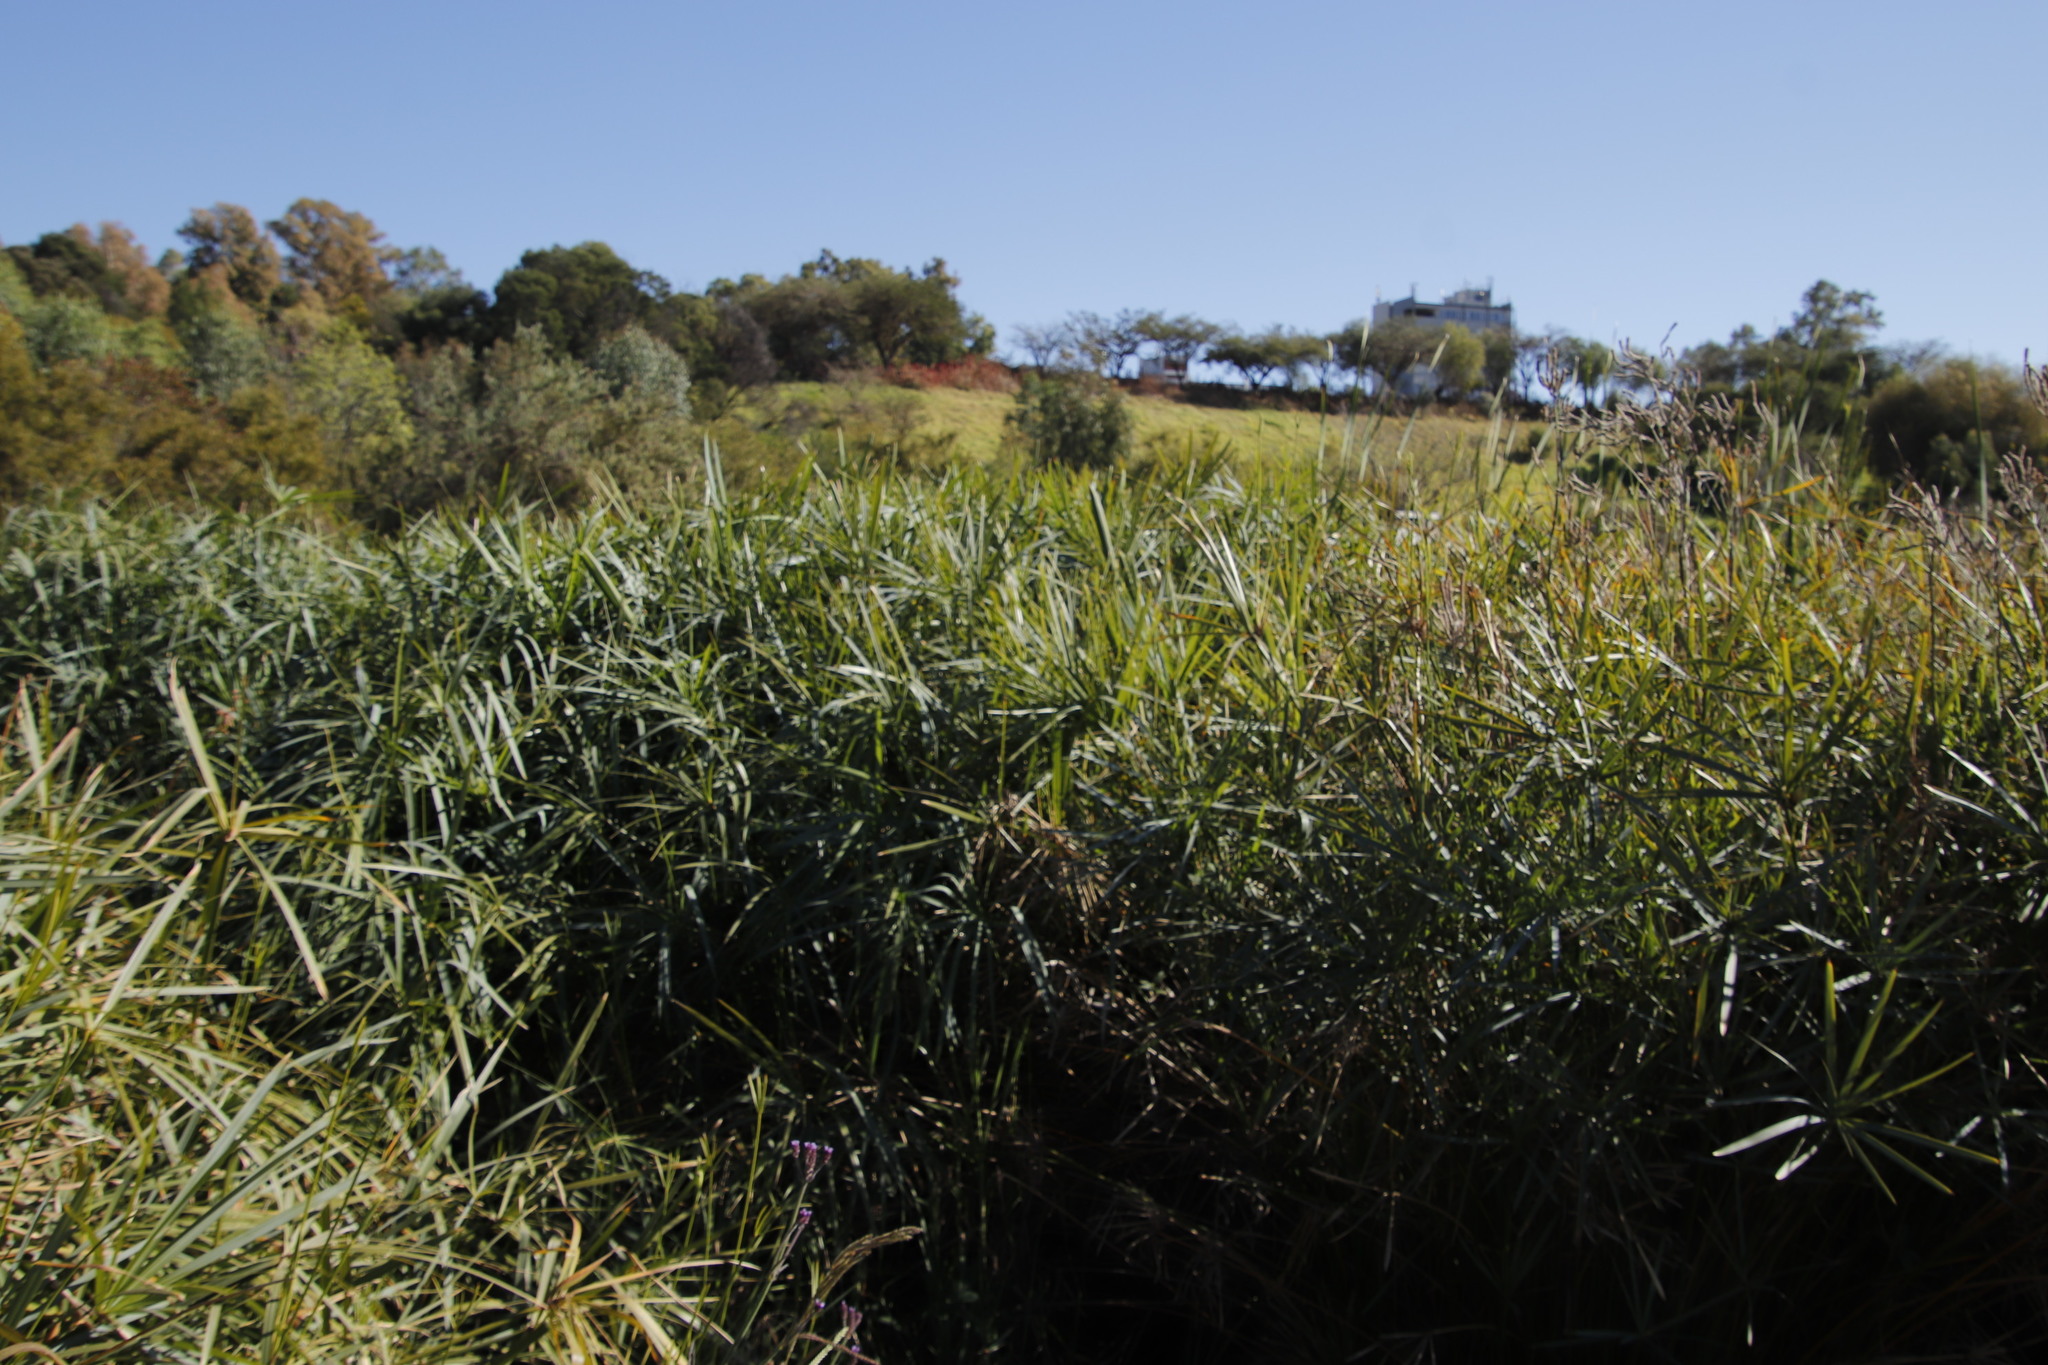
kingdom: Plantae
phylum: Tracheophyta
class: Liliopsida
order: Poales
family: Cyperaceae
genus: Cyperus
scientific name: Cyperus textilis
